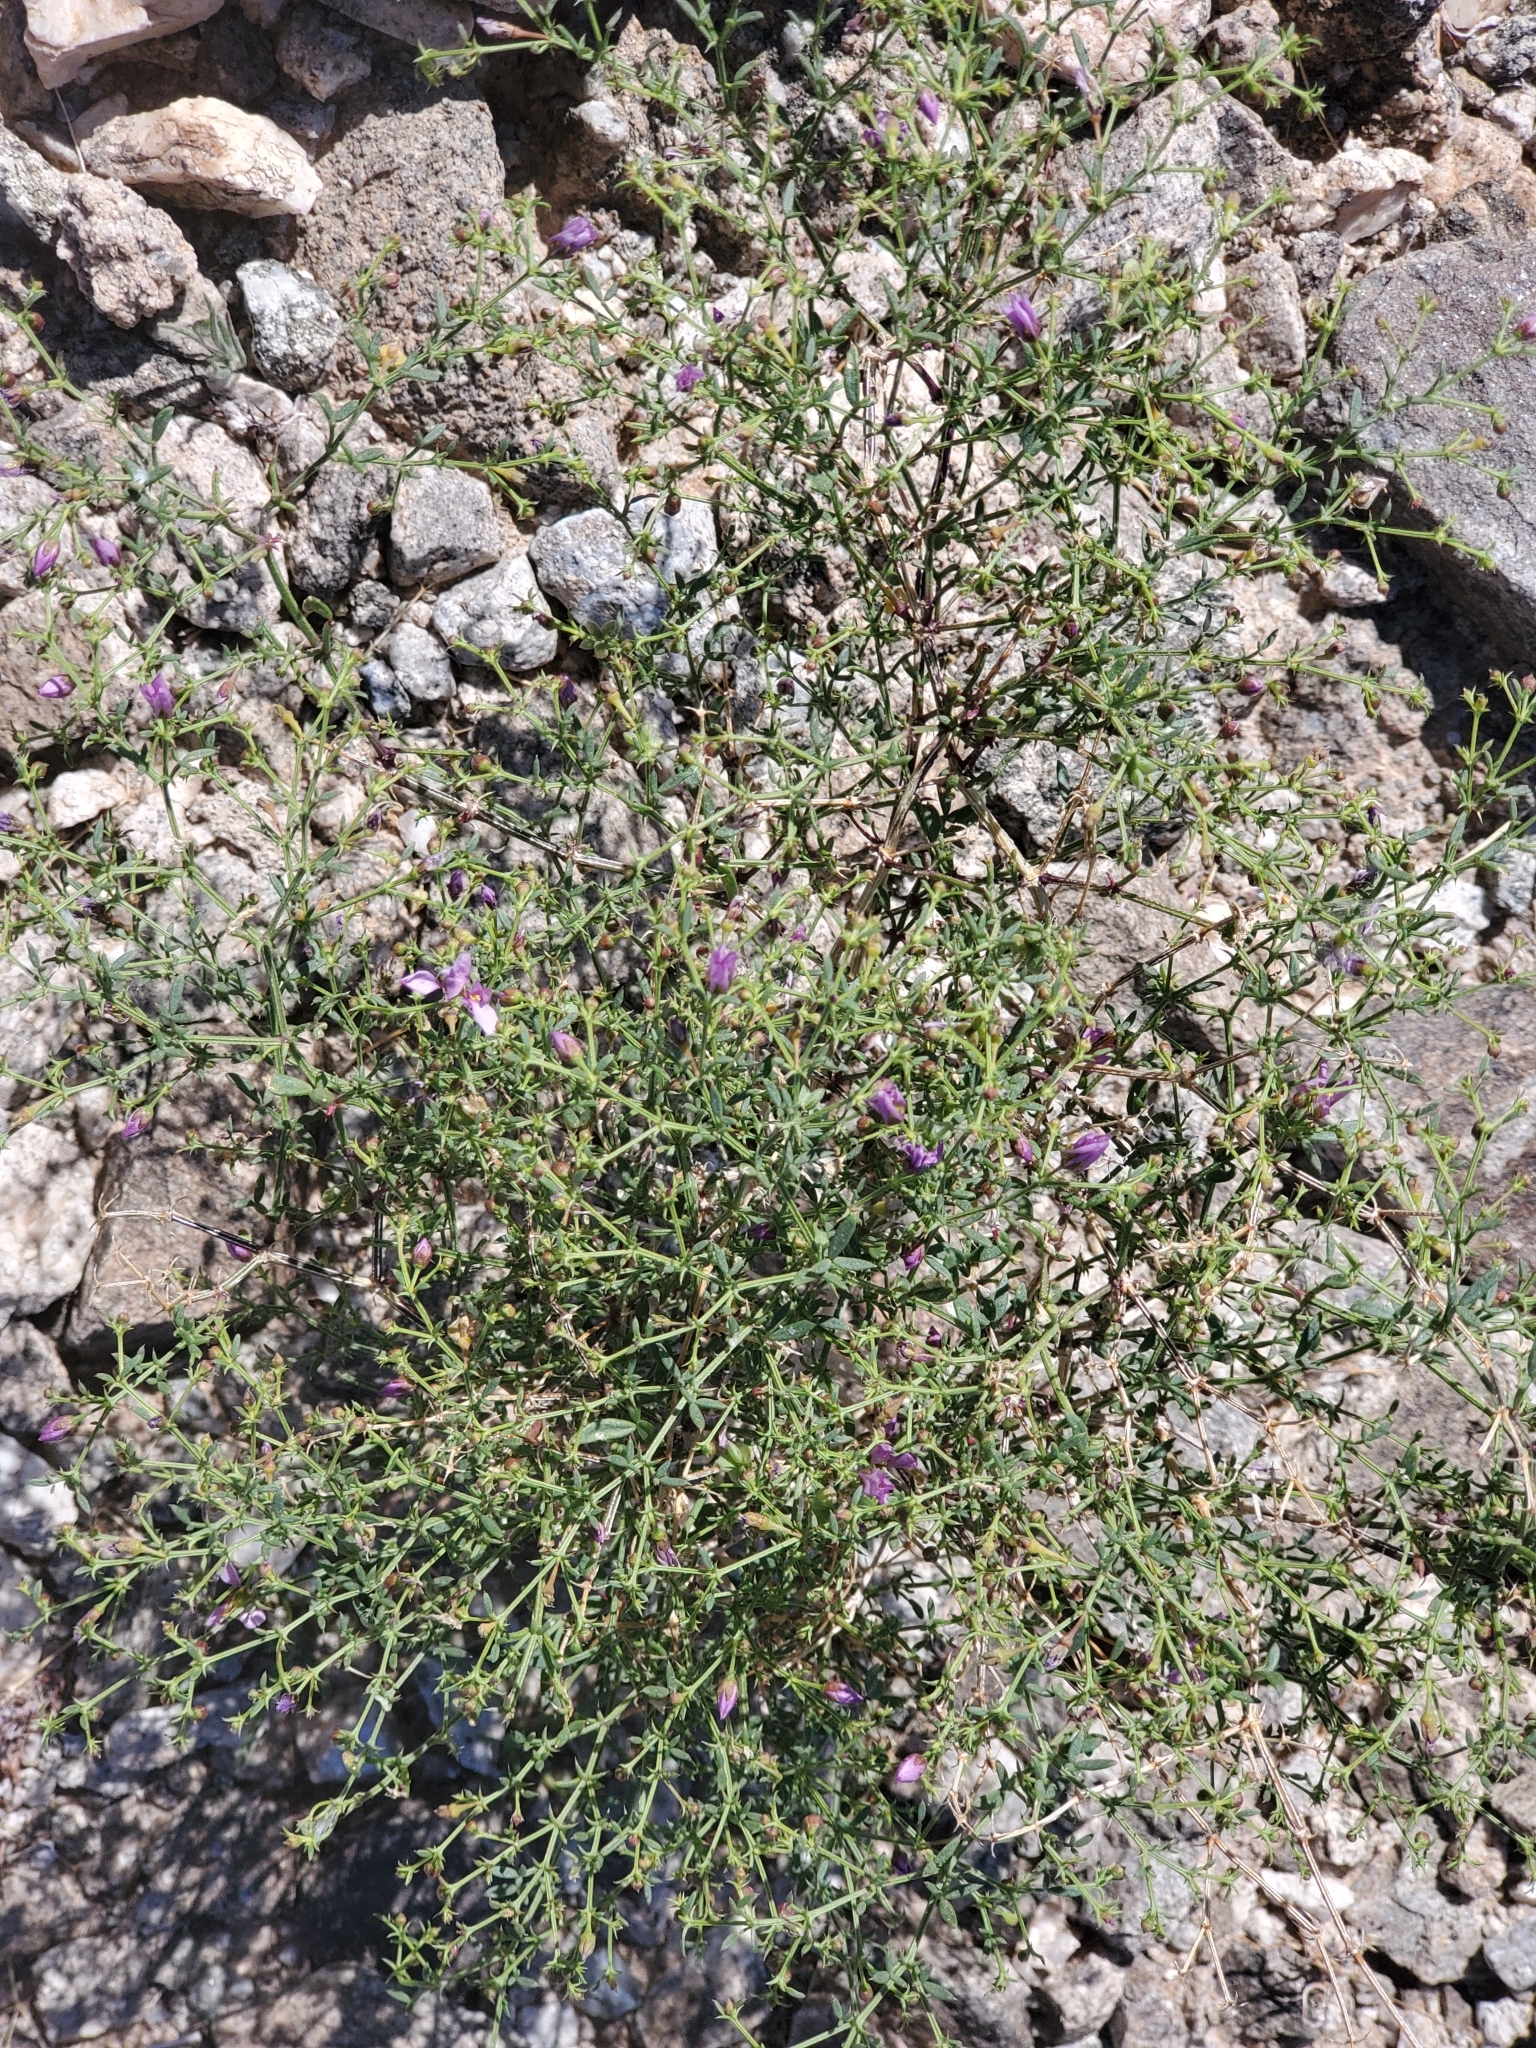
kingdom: Plantae
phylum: Tracheophyta
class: Magnoliopsida
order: Zygophyllales
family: Zygophyllaceae
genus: Fagonia
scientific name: Fagonia laevis
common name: California fagonbush
